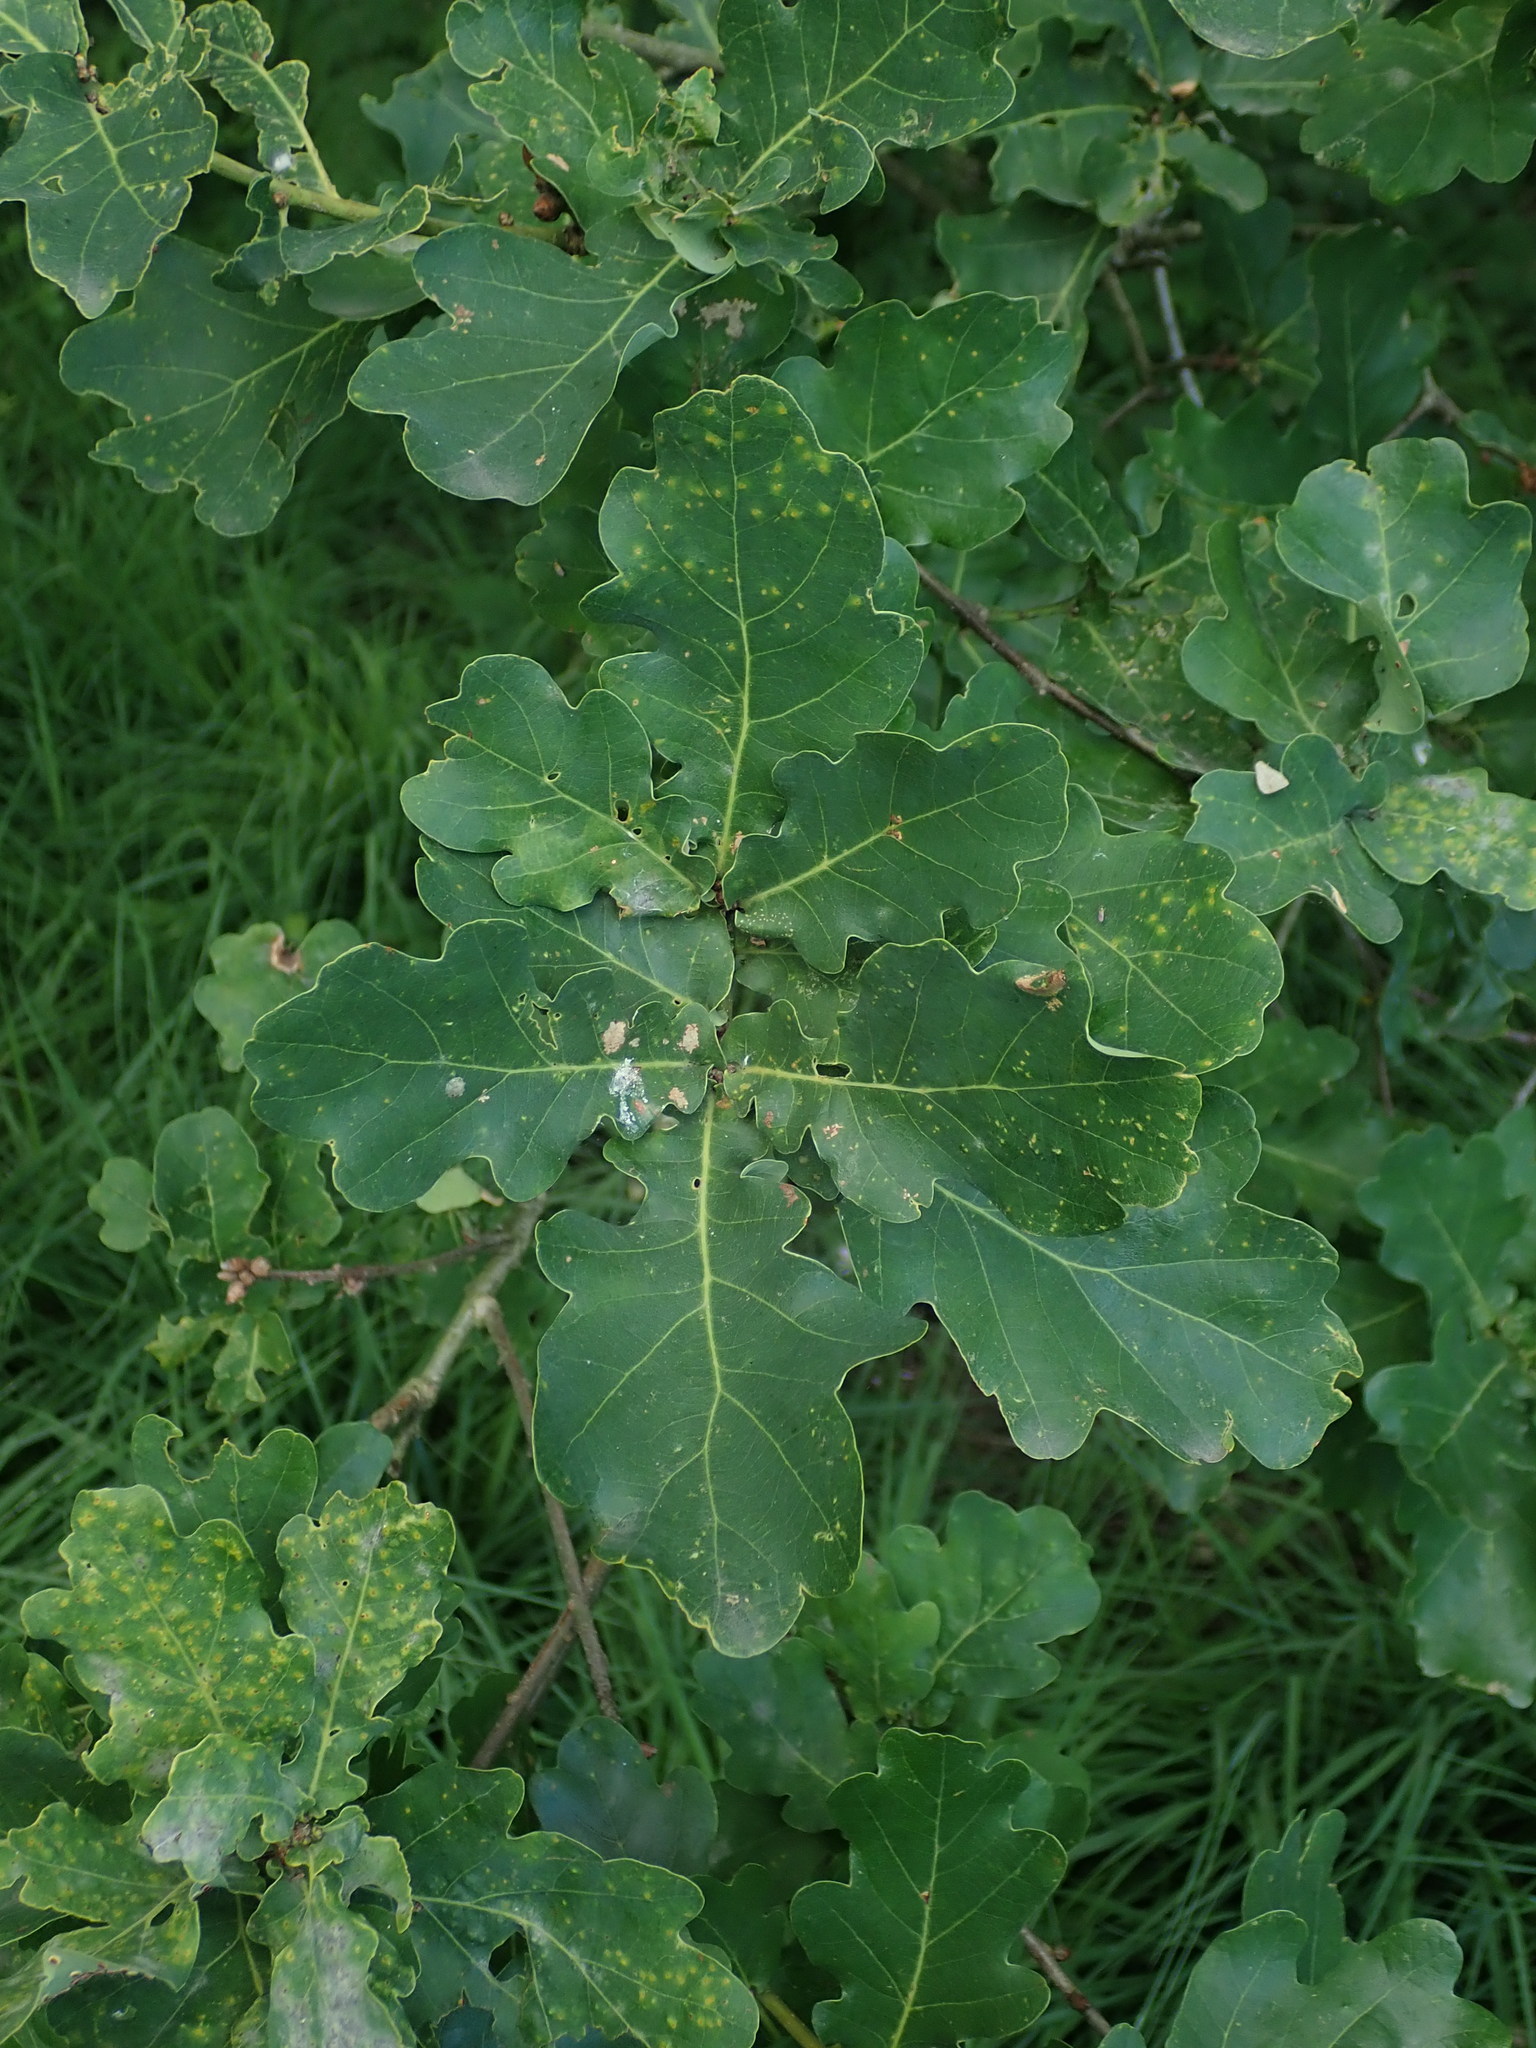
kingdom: Plantae
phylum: Tracheophyta
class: Magnoliopsida
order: Fagales
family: Fagaceae
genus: Quercus
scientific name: Quercus robur
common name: Pedunculate oak
